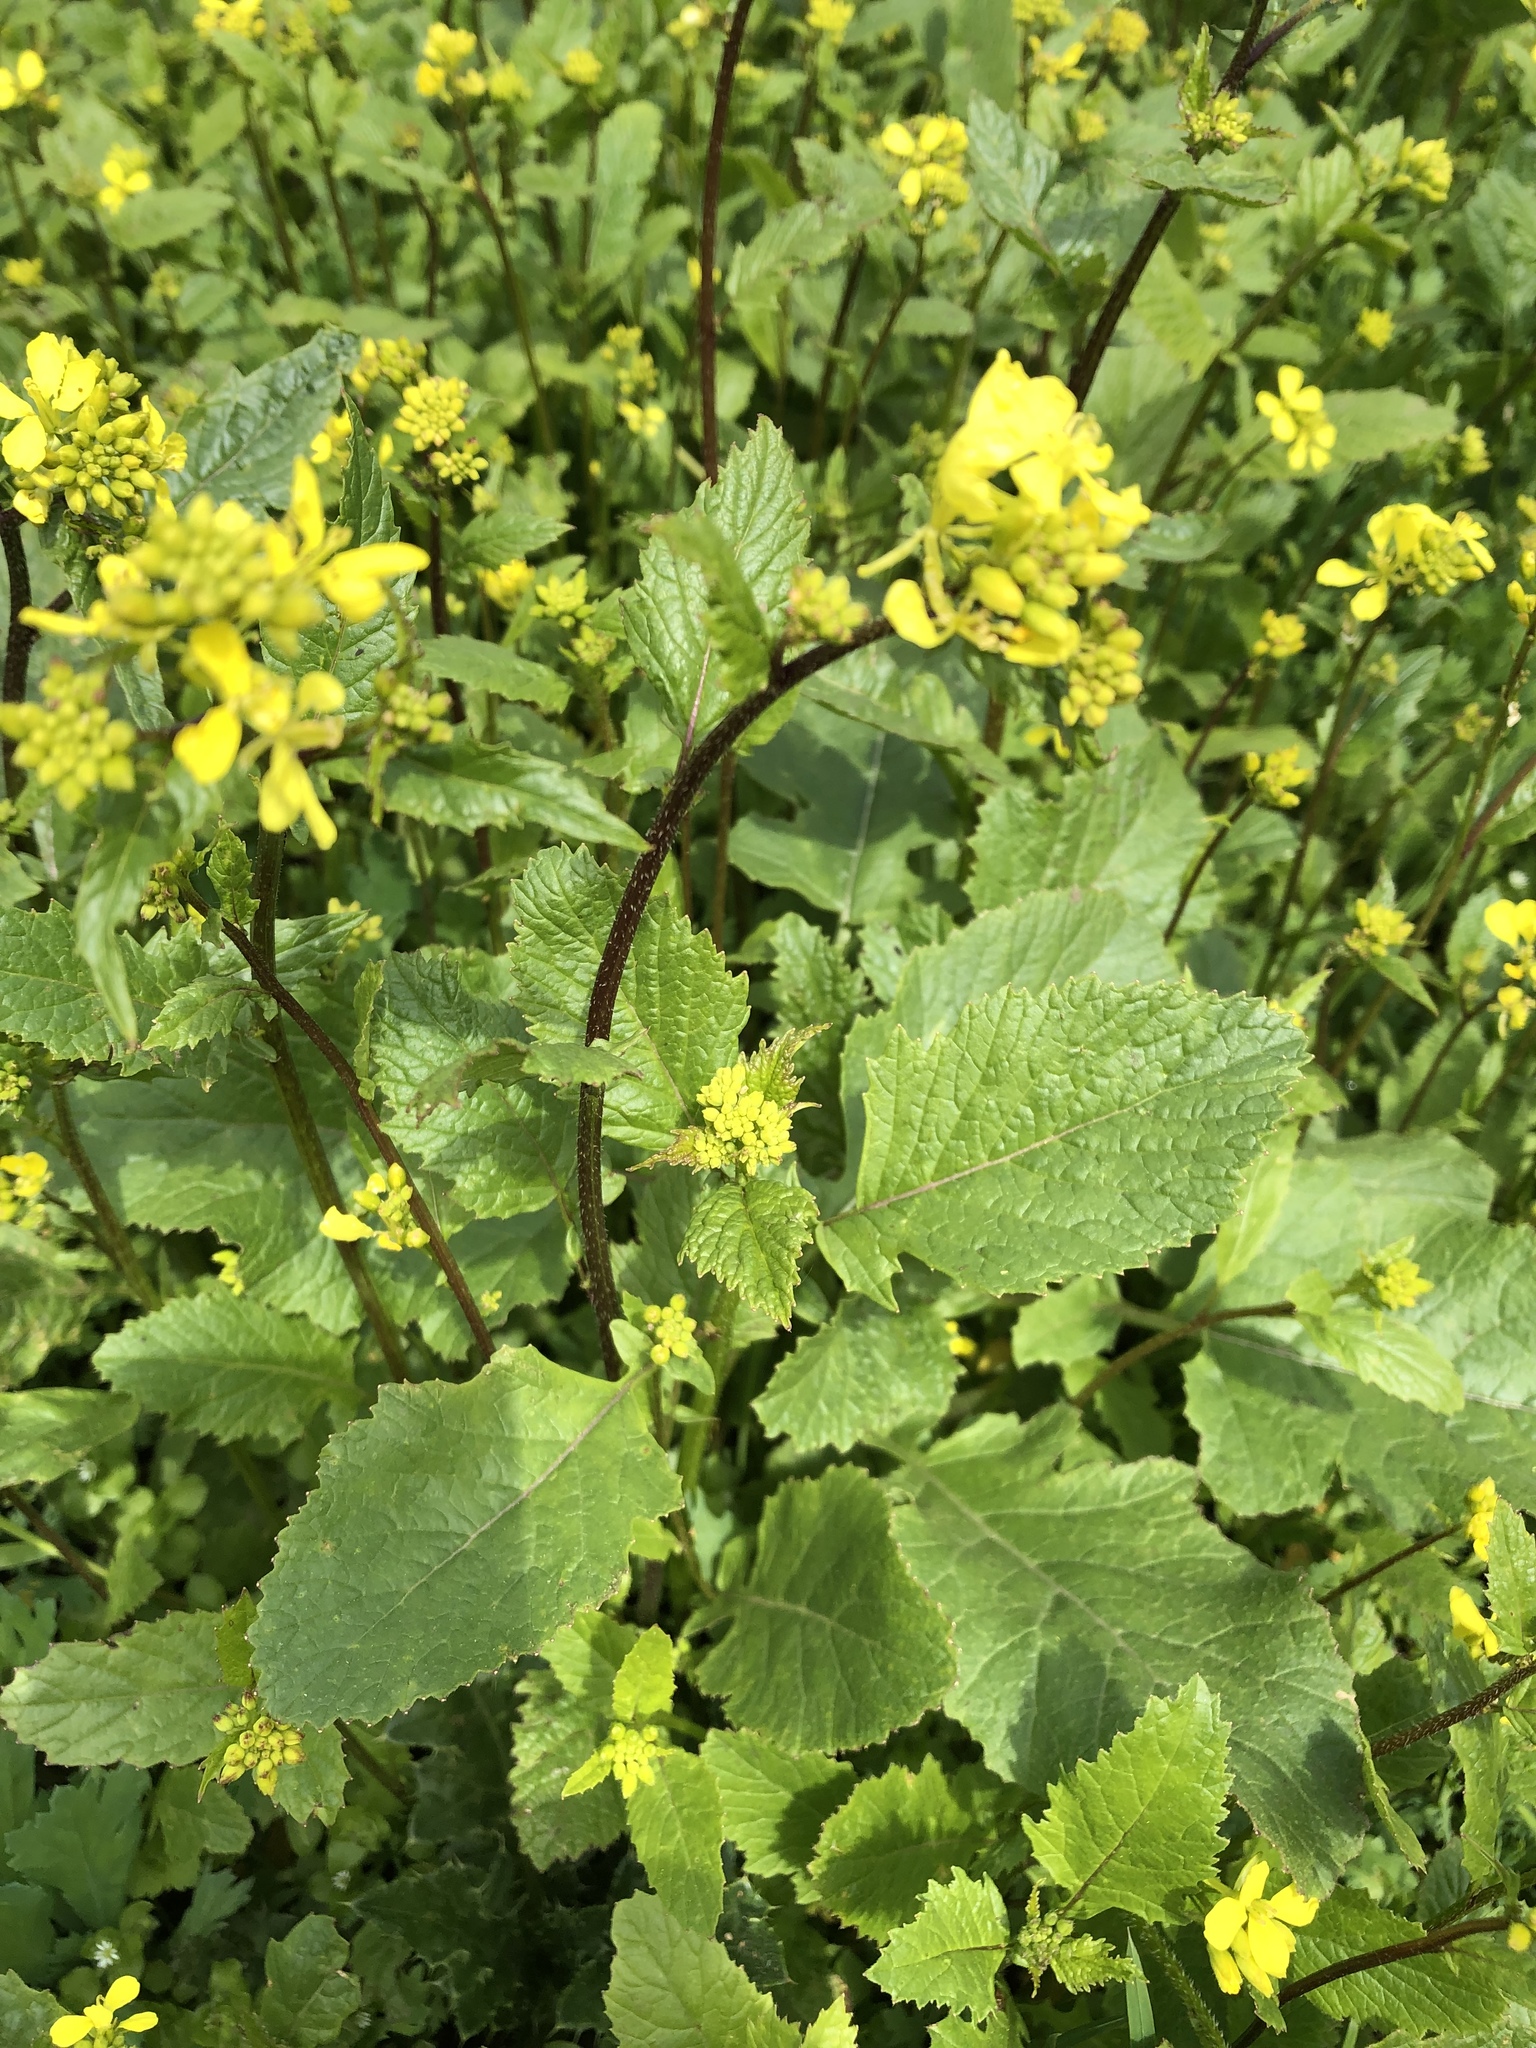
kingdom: Plantae
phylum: Tracheophyta
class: Magnoliopsida
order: Brassicales
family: Brassicaceae
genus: Sinapis
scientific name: Sinapis arvensis
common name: Charlock
